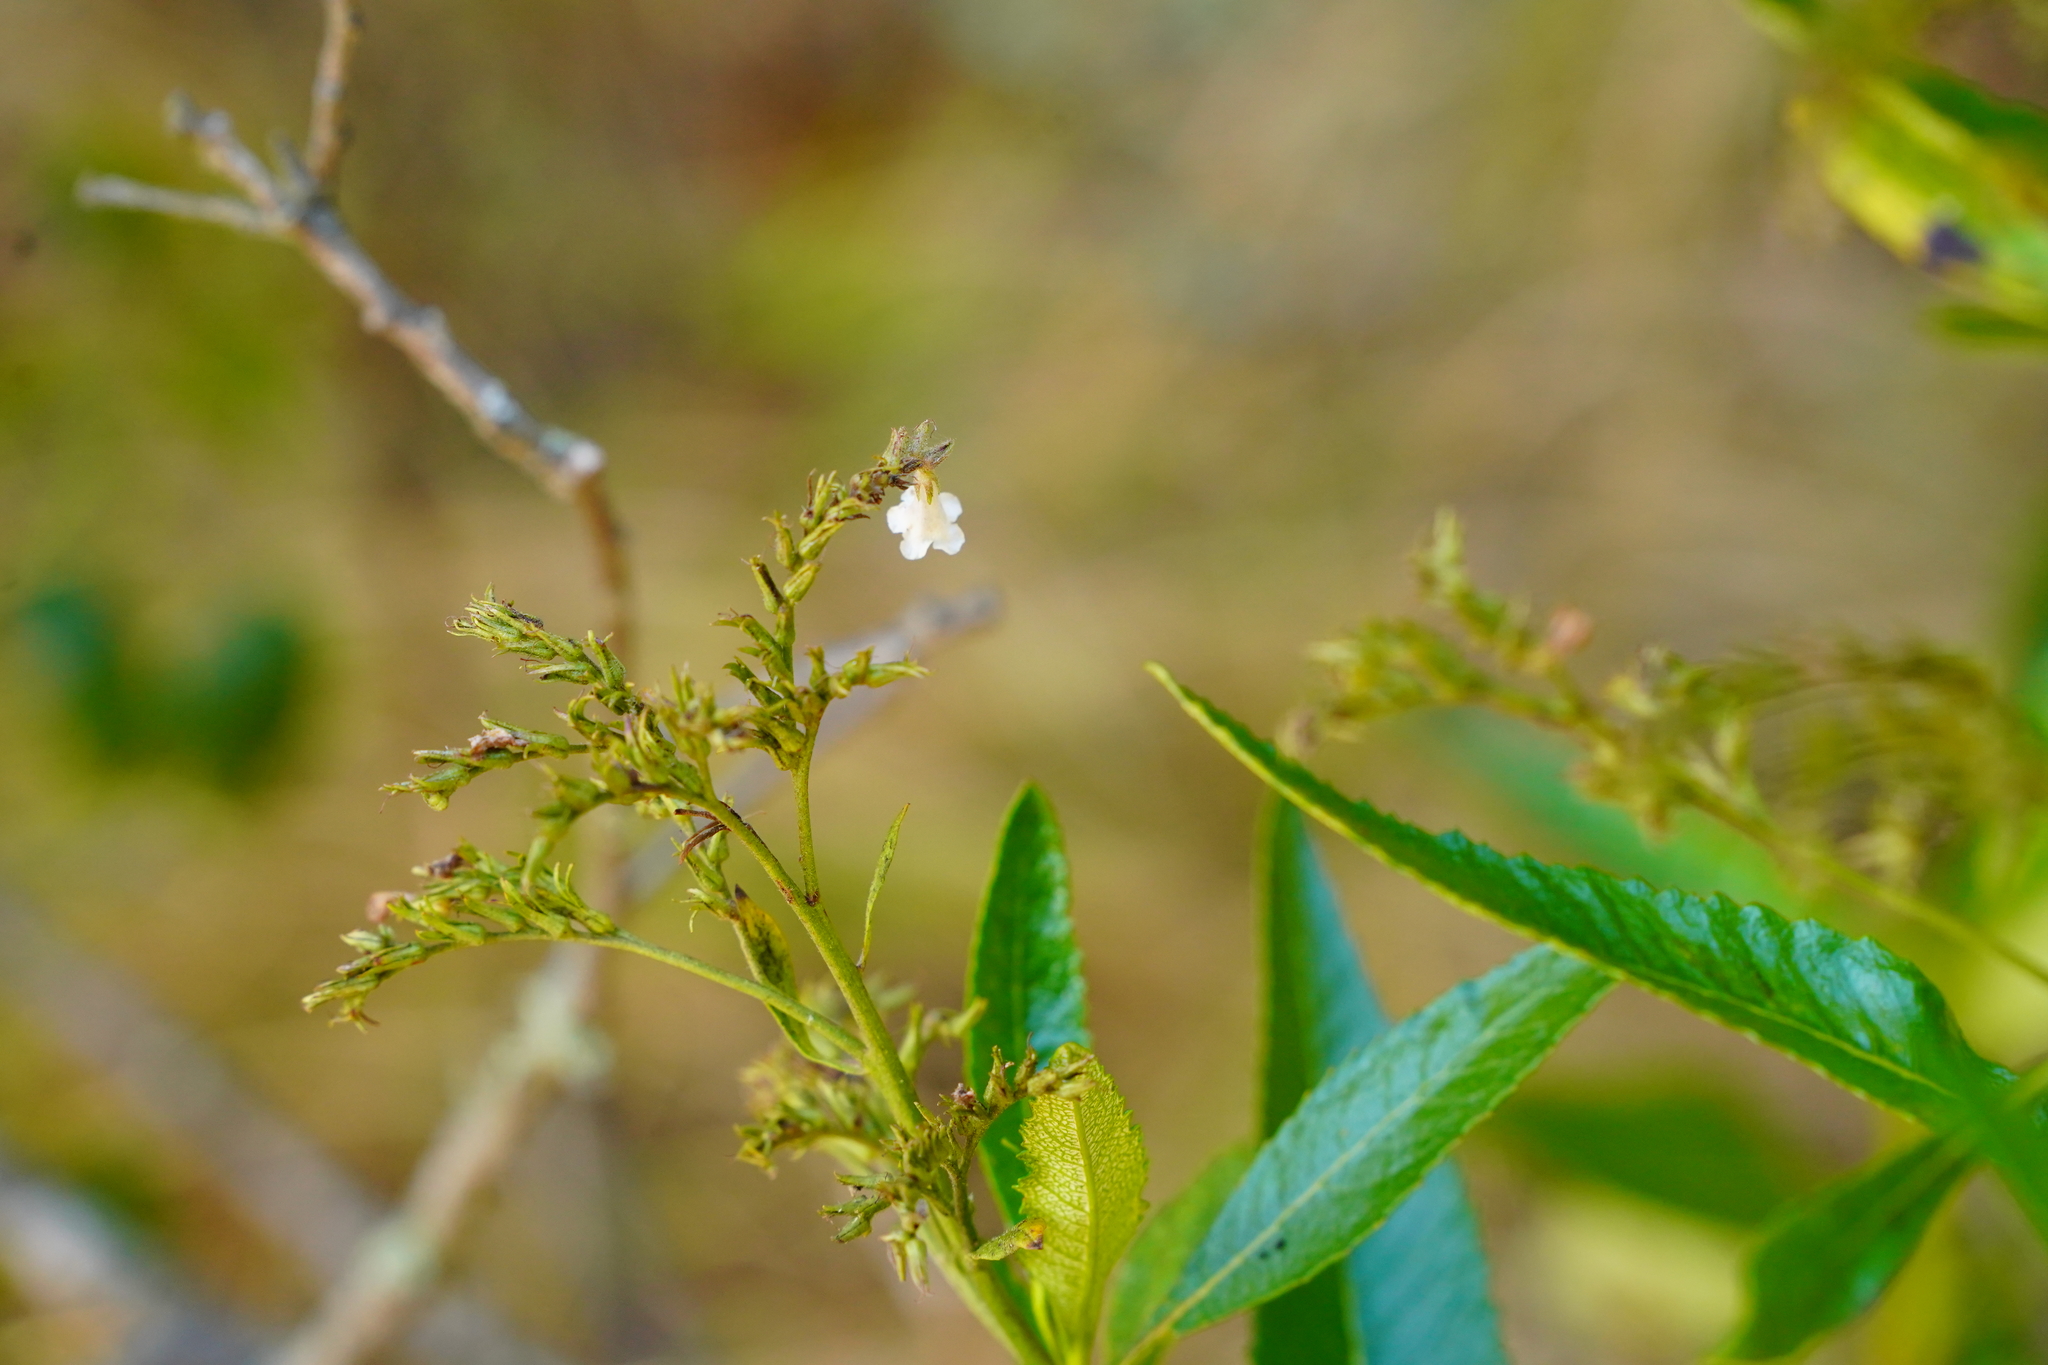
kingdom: Plantae
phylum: Tracheophyta
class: Magnoliopsida
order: Boraginales
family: Namaceae
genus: Eriodictyon
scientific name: Eriodictyon californicum
